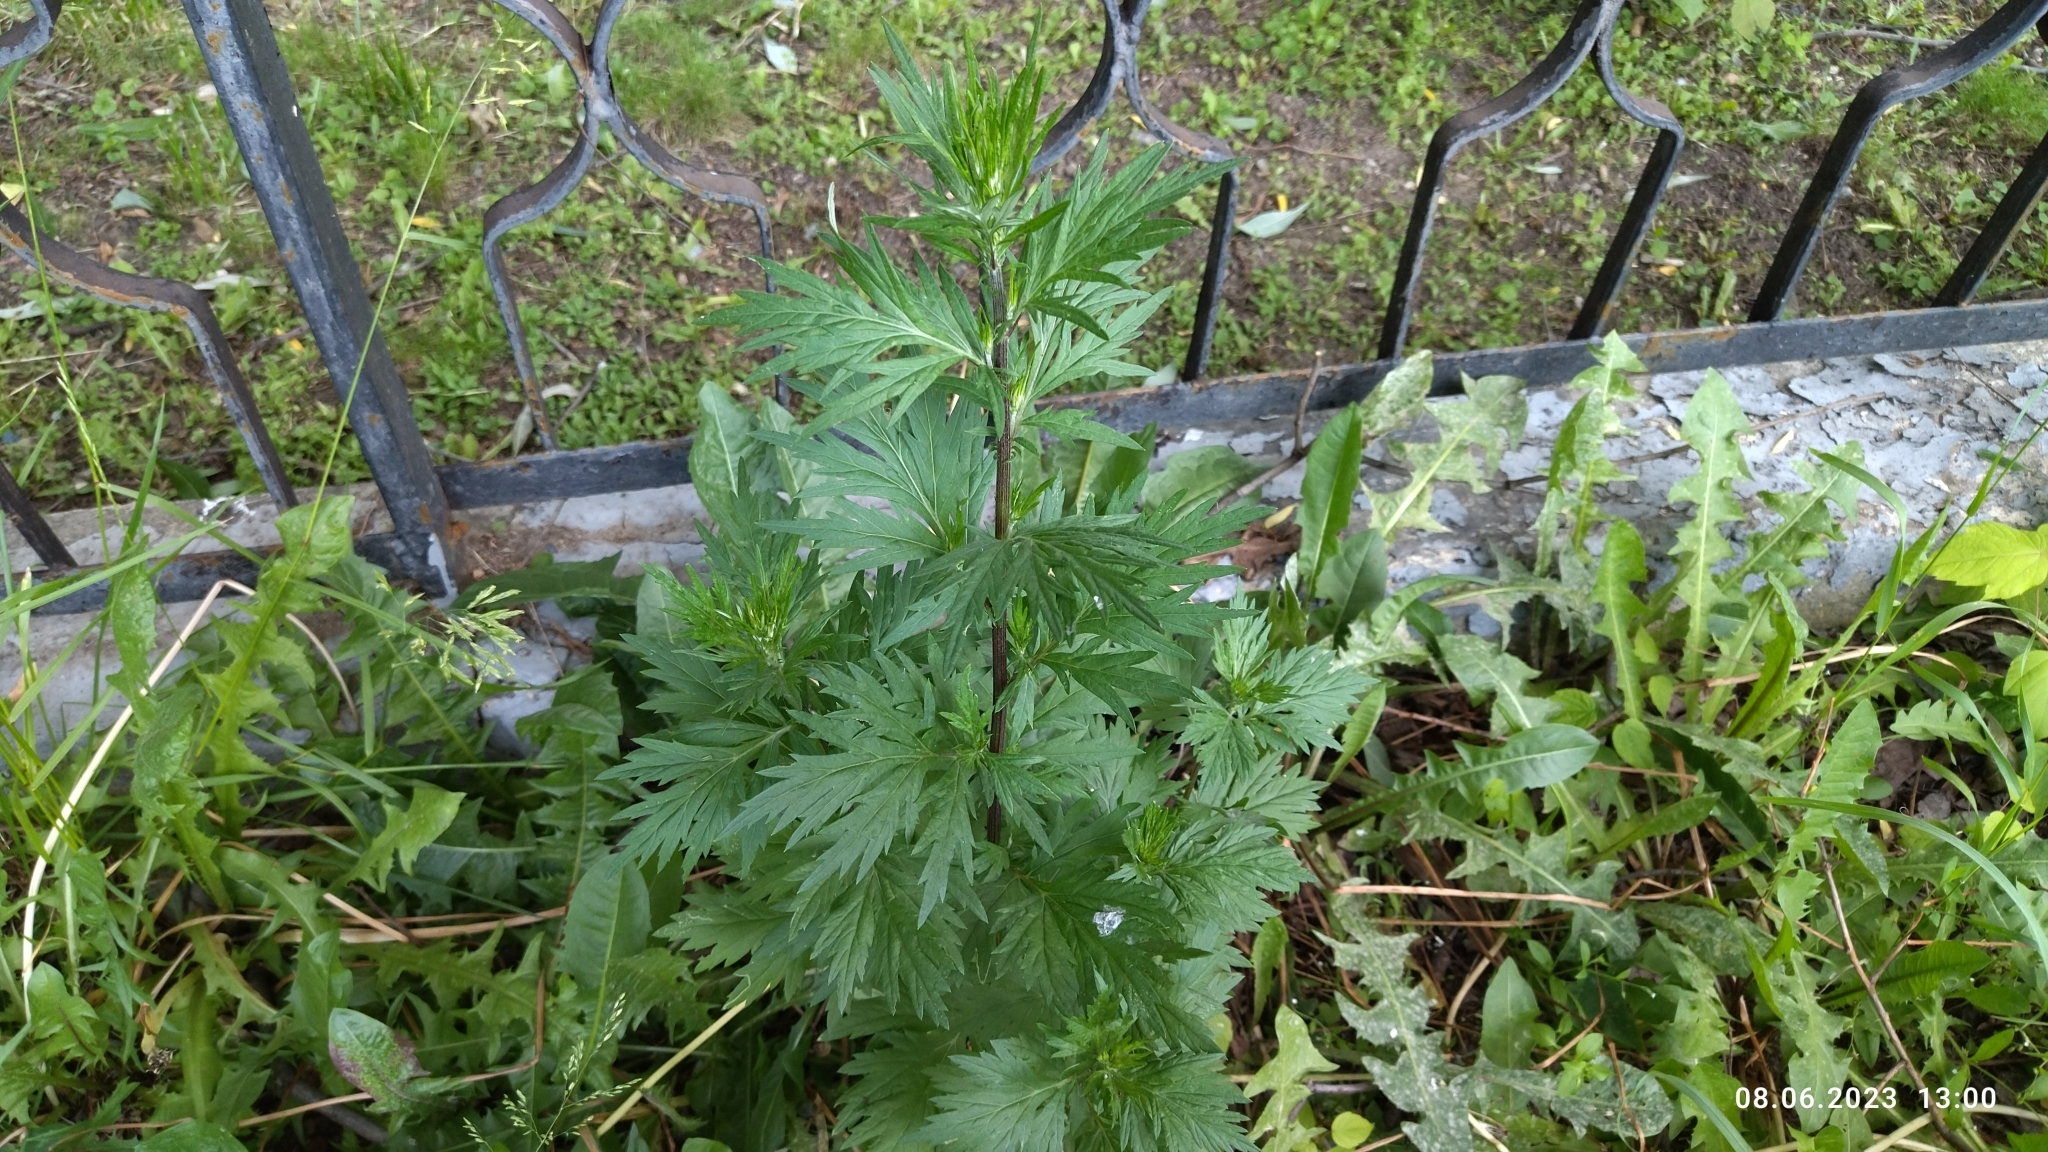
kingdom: Plantae
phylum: Tracheophyta
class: Magnoliopsida
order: Asterales
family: Asteraceae
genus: Artemisia
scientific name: Artemisia vulgaris
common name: Mugwort
